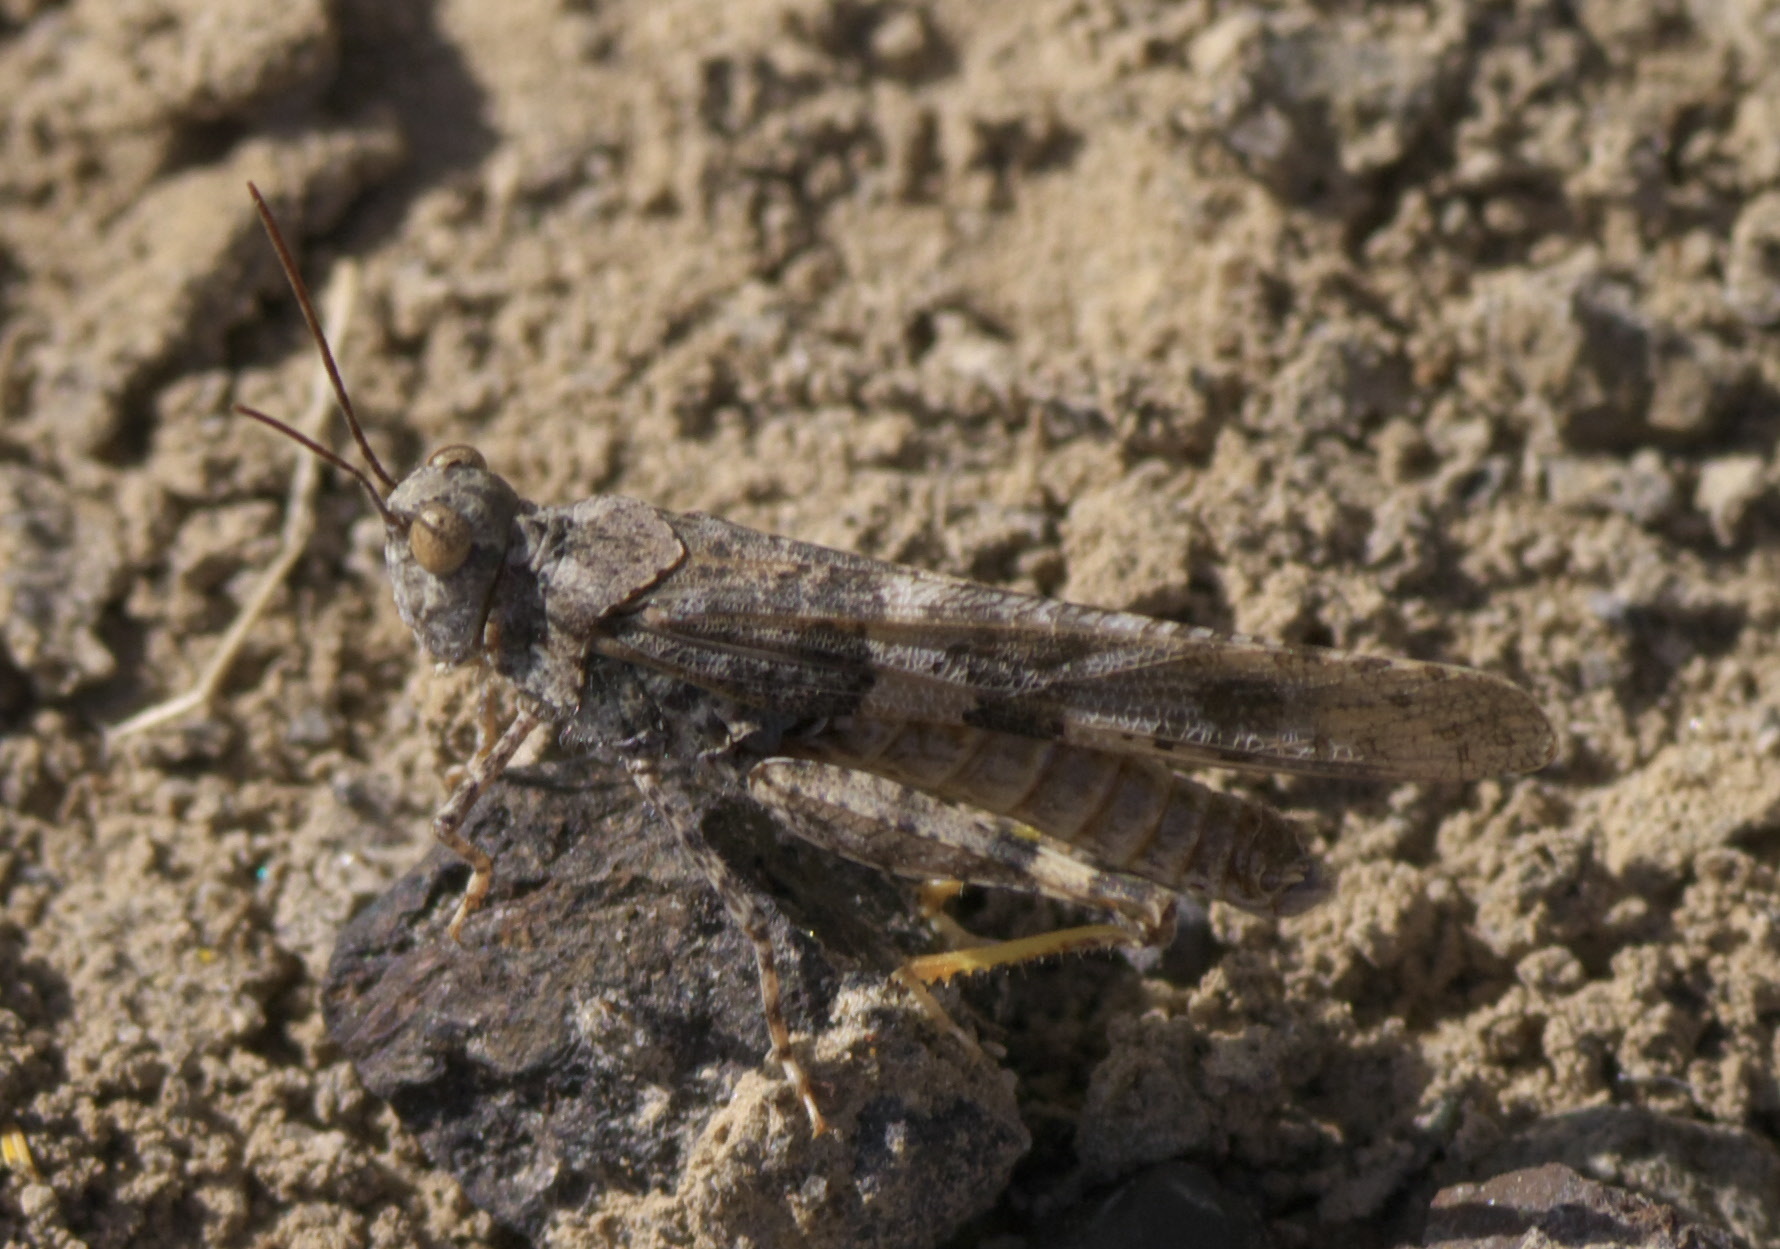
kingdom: Animalia
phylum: Arthropoda
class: Insecta
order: Orthoptera
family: Acrididae
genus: Trimerotropis
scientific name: Trimerotropis salina
